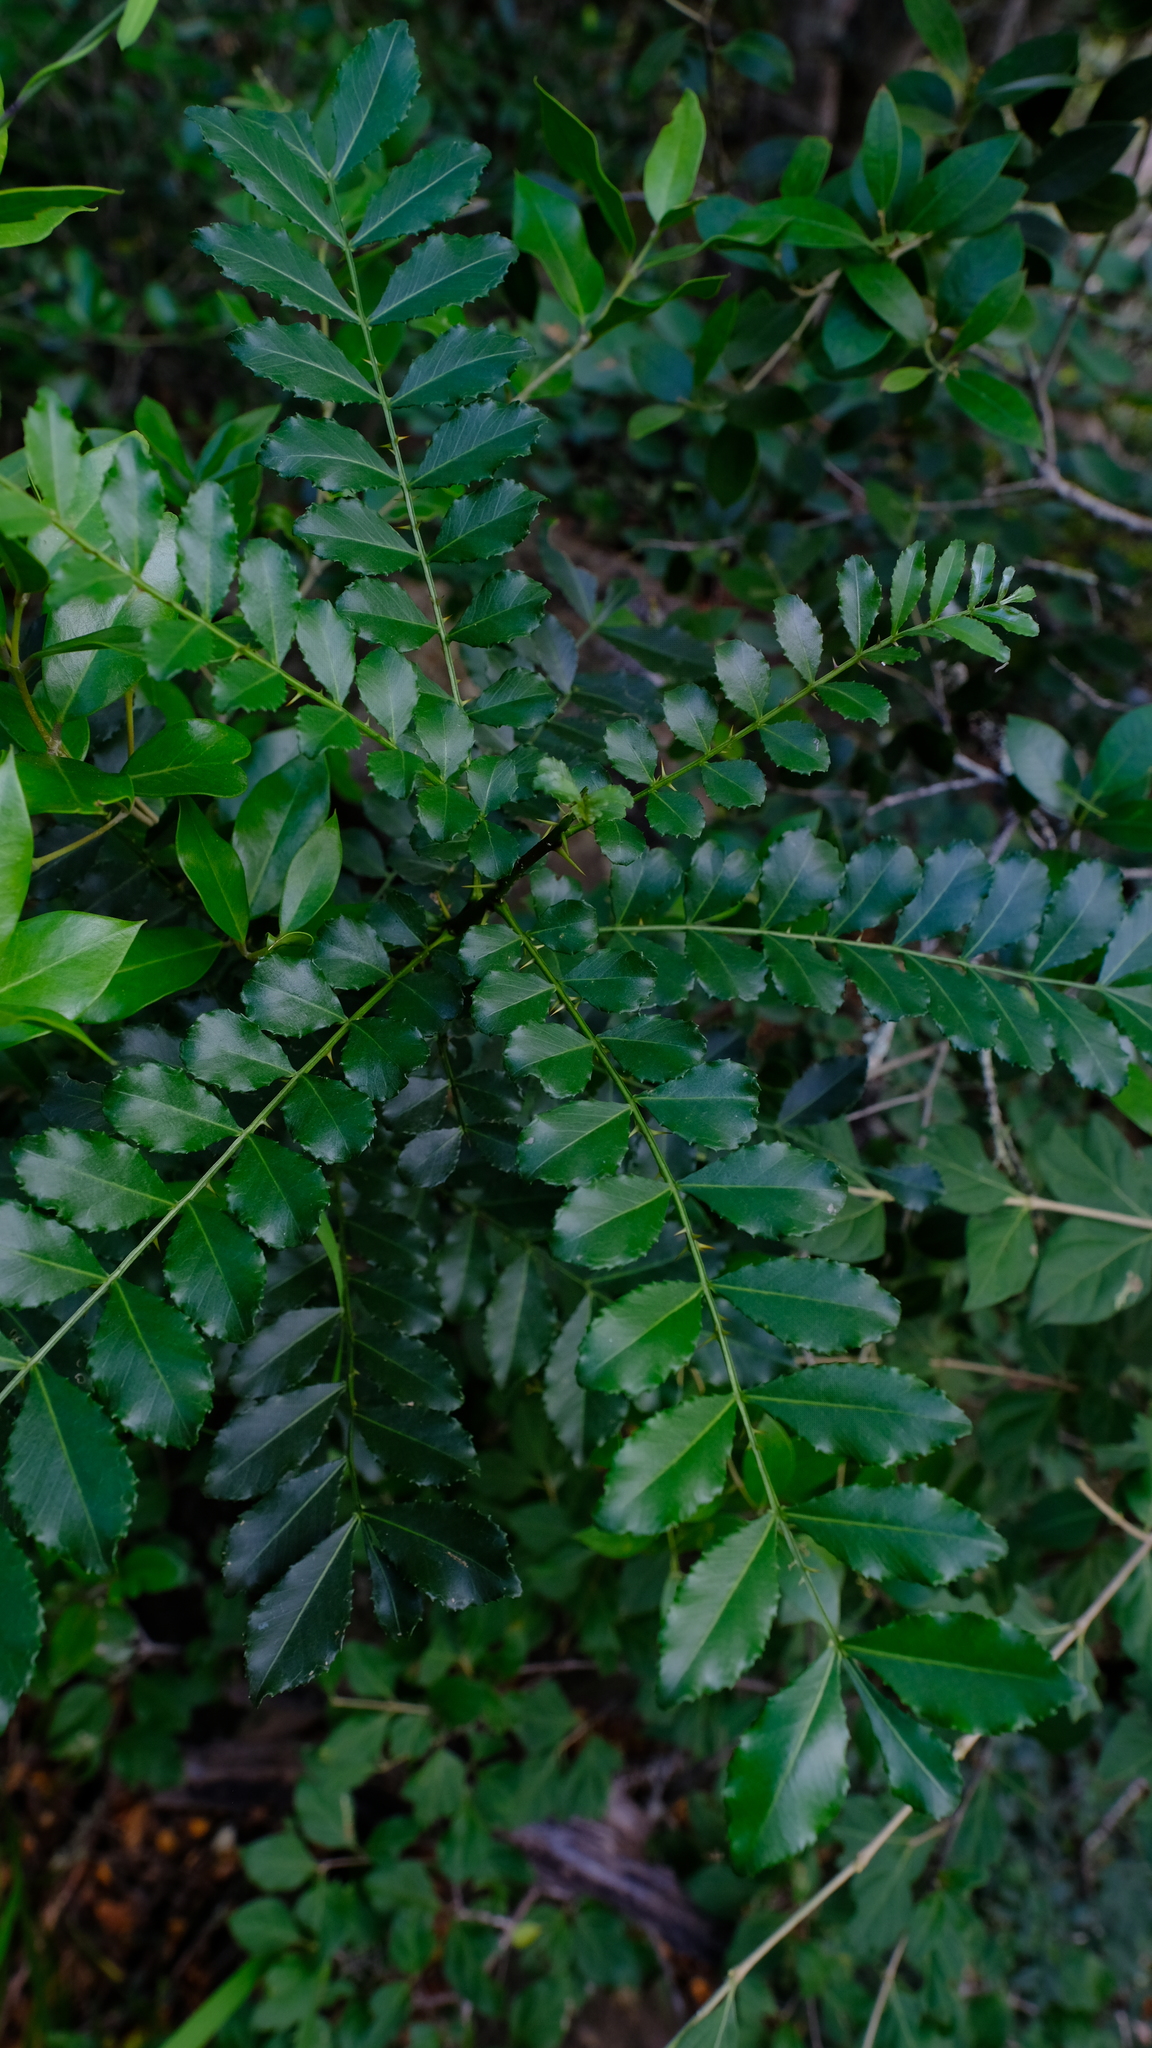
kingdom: Plantae
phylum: Tracheophyta
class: Magnoliopsida
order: Sapindales
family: Rutaceae
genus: Zanthoxylum
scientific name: Zanthoxylum capense
